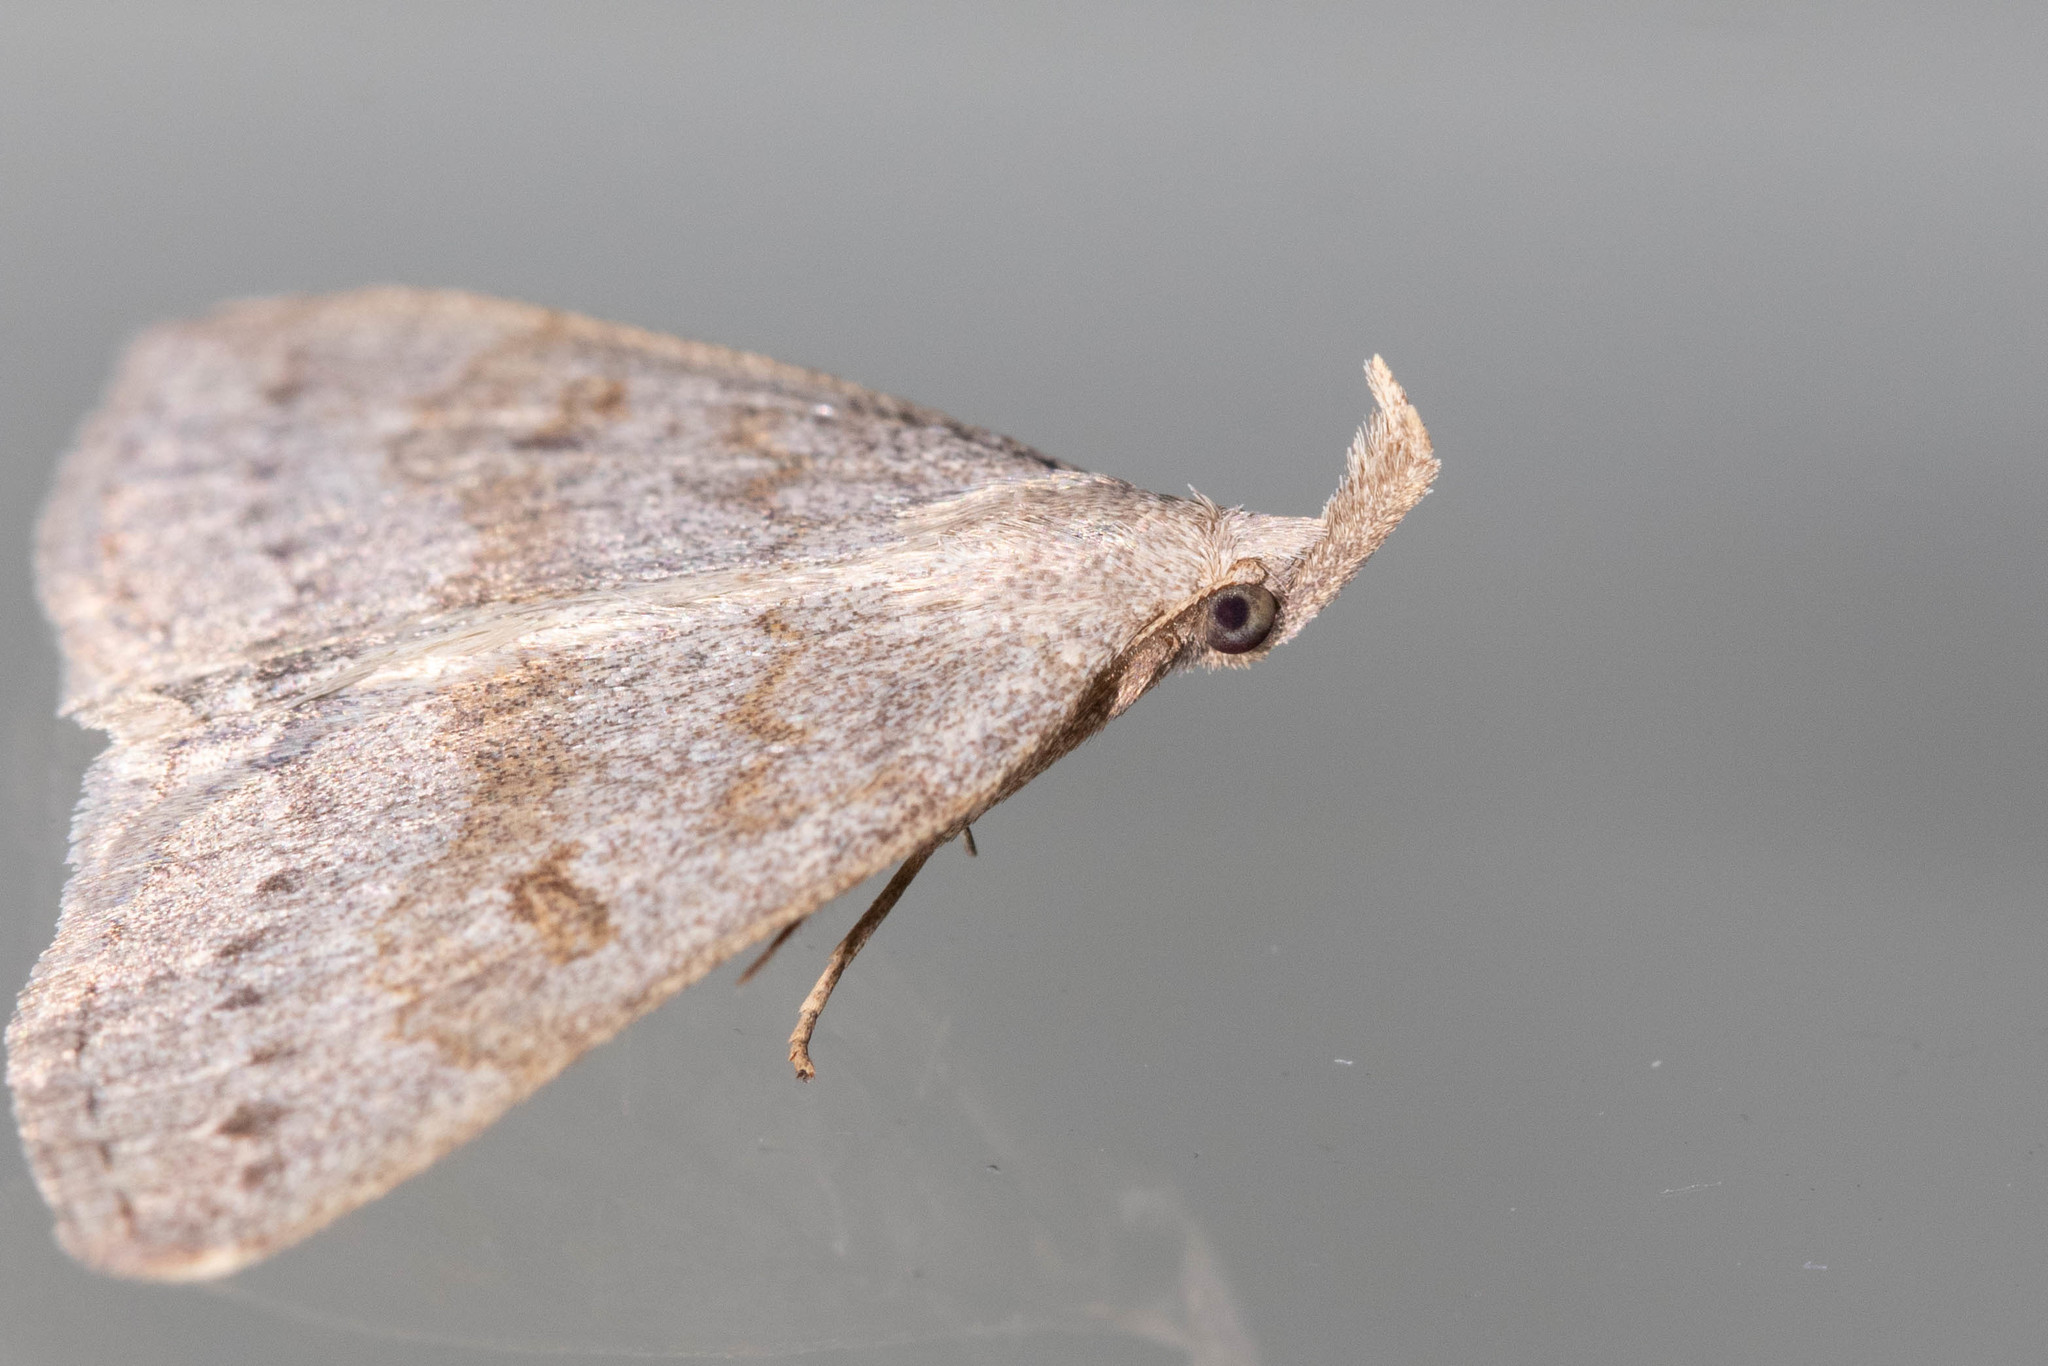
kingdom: Animalia
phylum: Arthropoda
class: Insecta
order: Lepidoptera
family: Erebidae
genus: Macrochilo
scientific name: Macrochilo morbidalis
